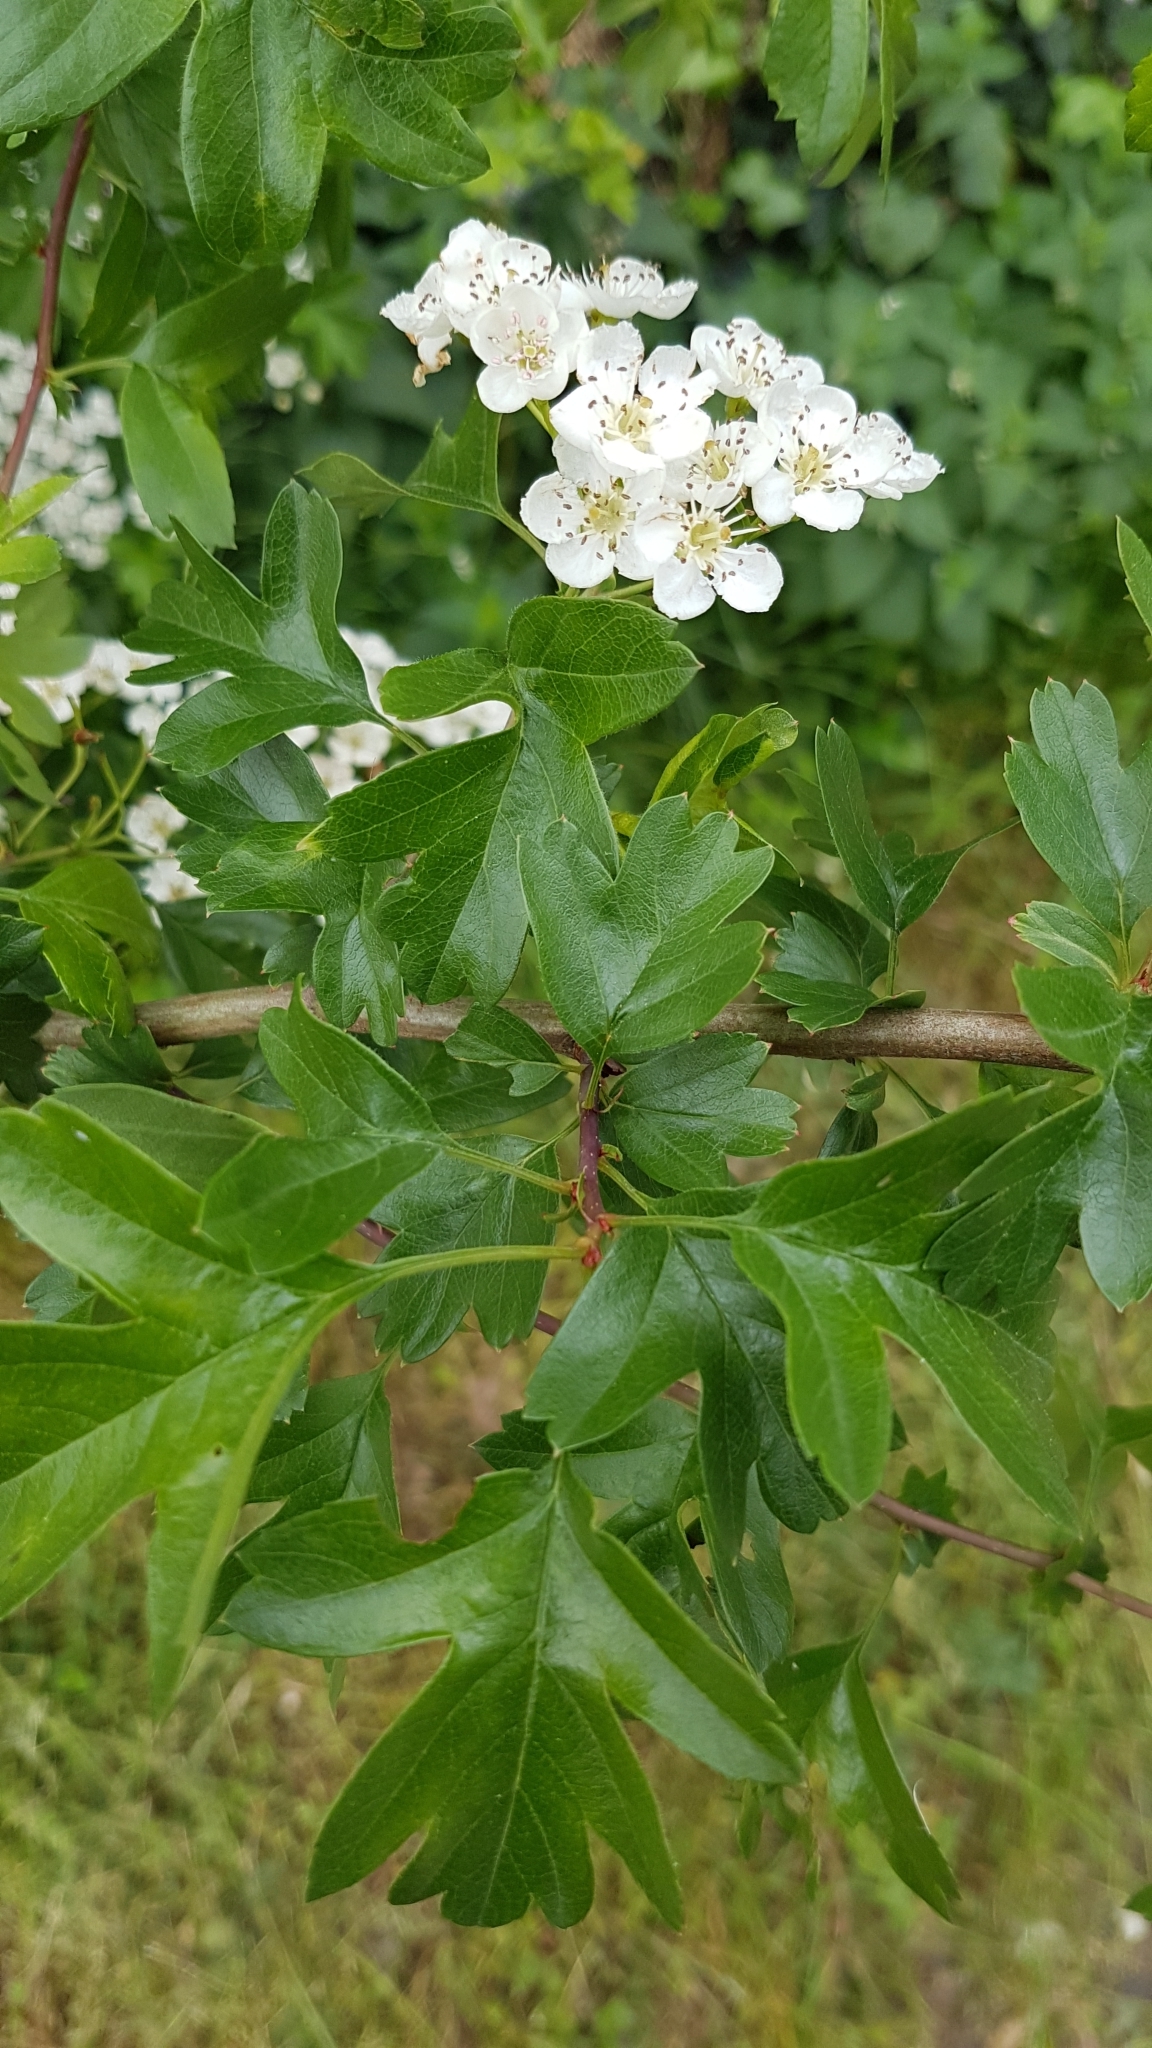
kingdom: Plantae
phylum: Tracheophyta
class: Magnoliopsida
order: Rosales
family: Rosaceae
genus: Crataegus
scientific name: Crataegus monogyna
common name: Hawthorn
